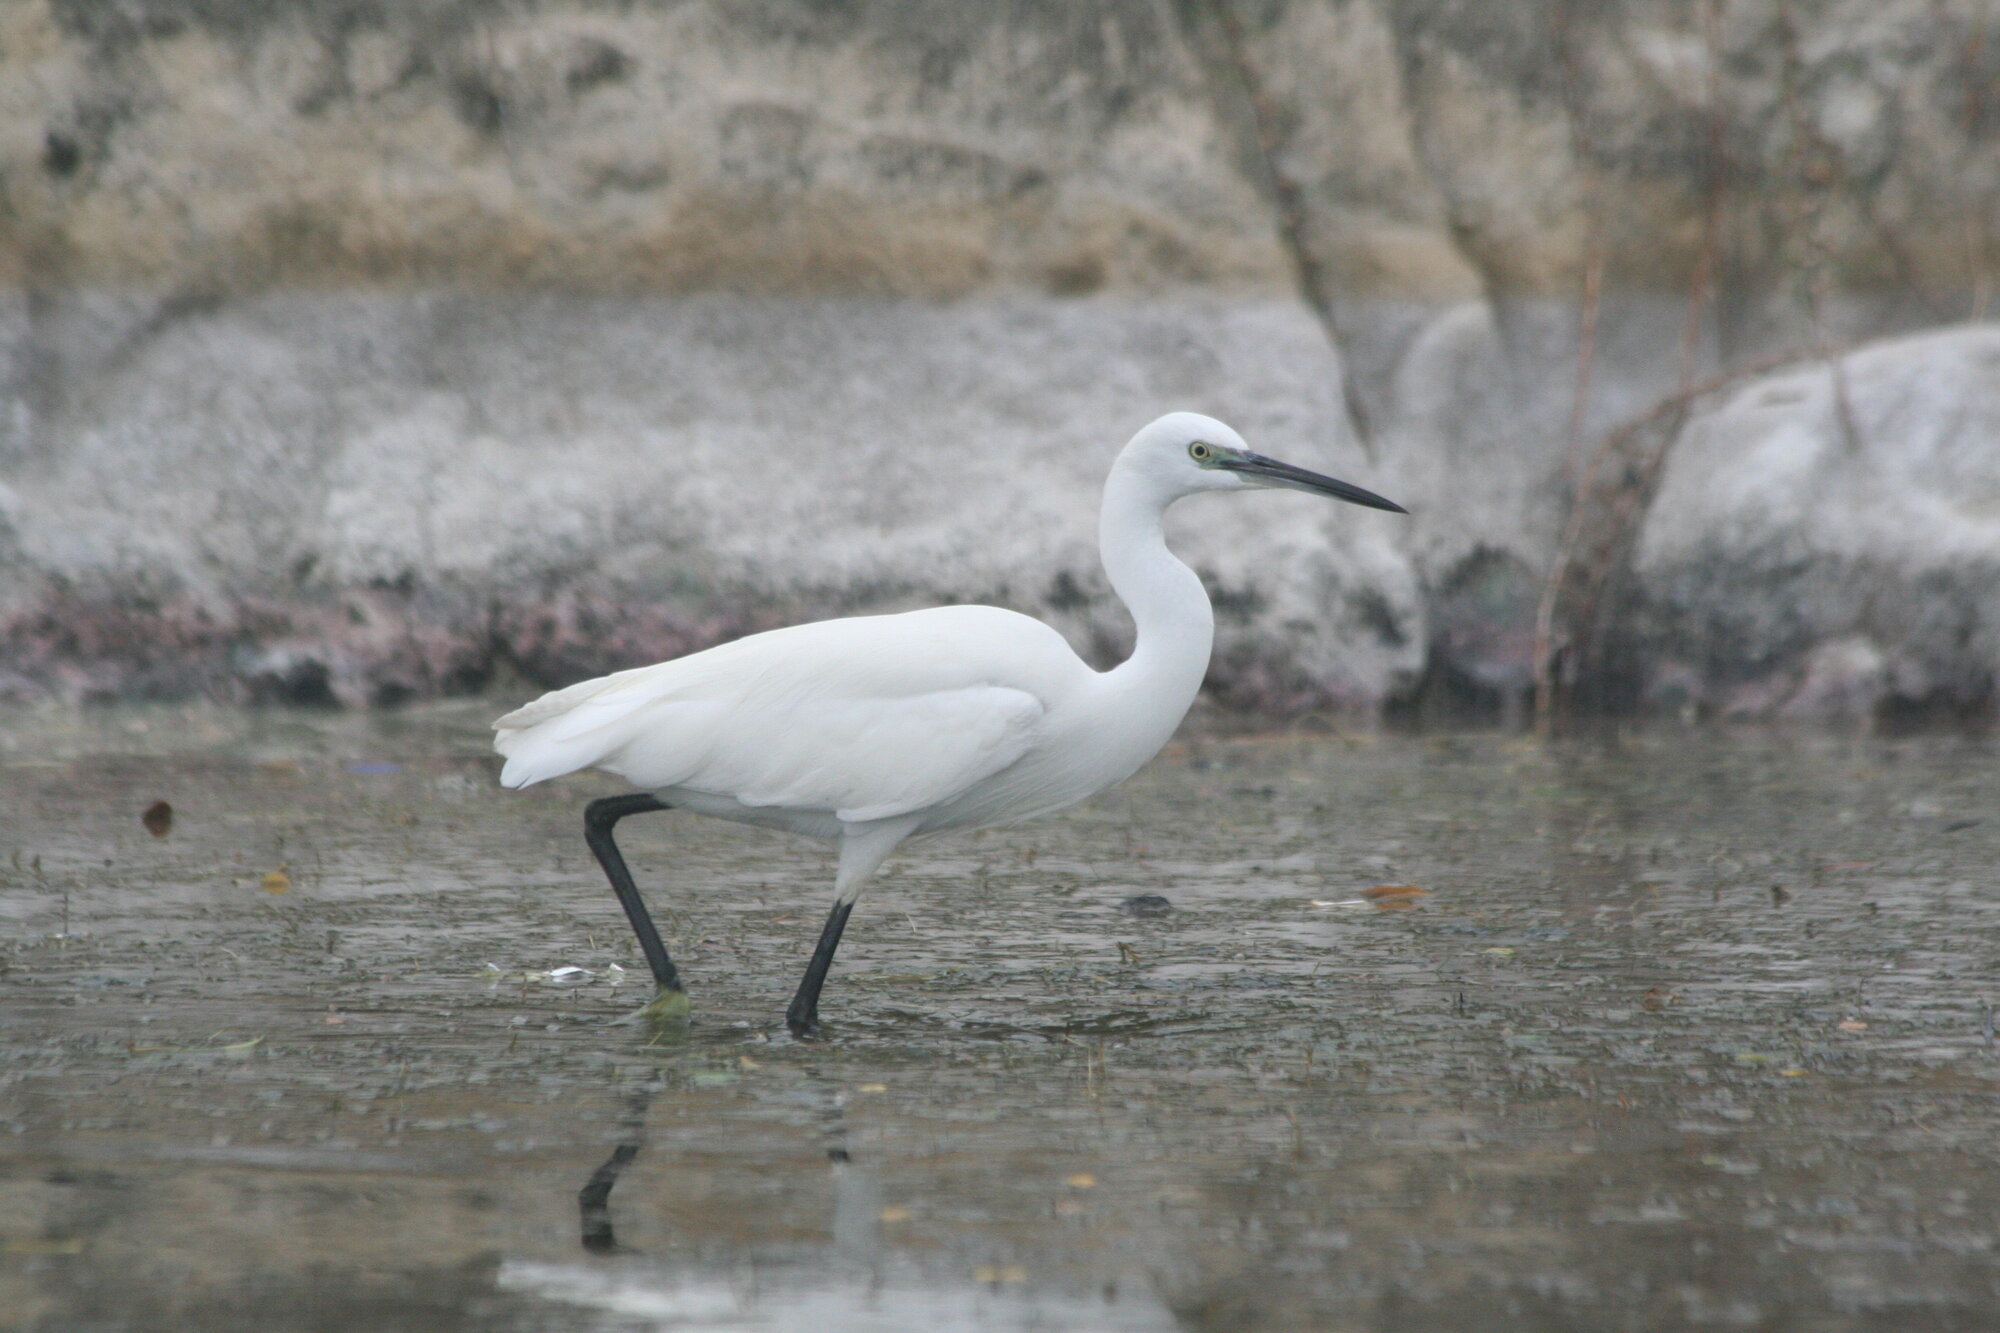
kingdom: Animalia
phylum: Chordata
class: Aves
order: Pelecaniformes
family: Ardeidae
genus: Egretta
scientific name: Egretta garzetta
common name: Little egret
